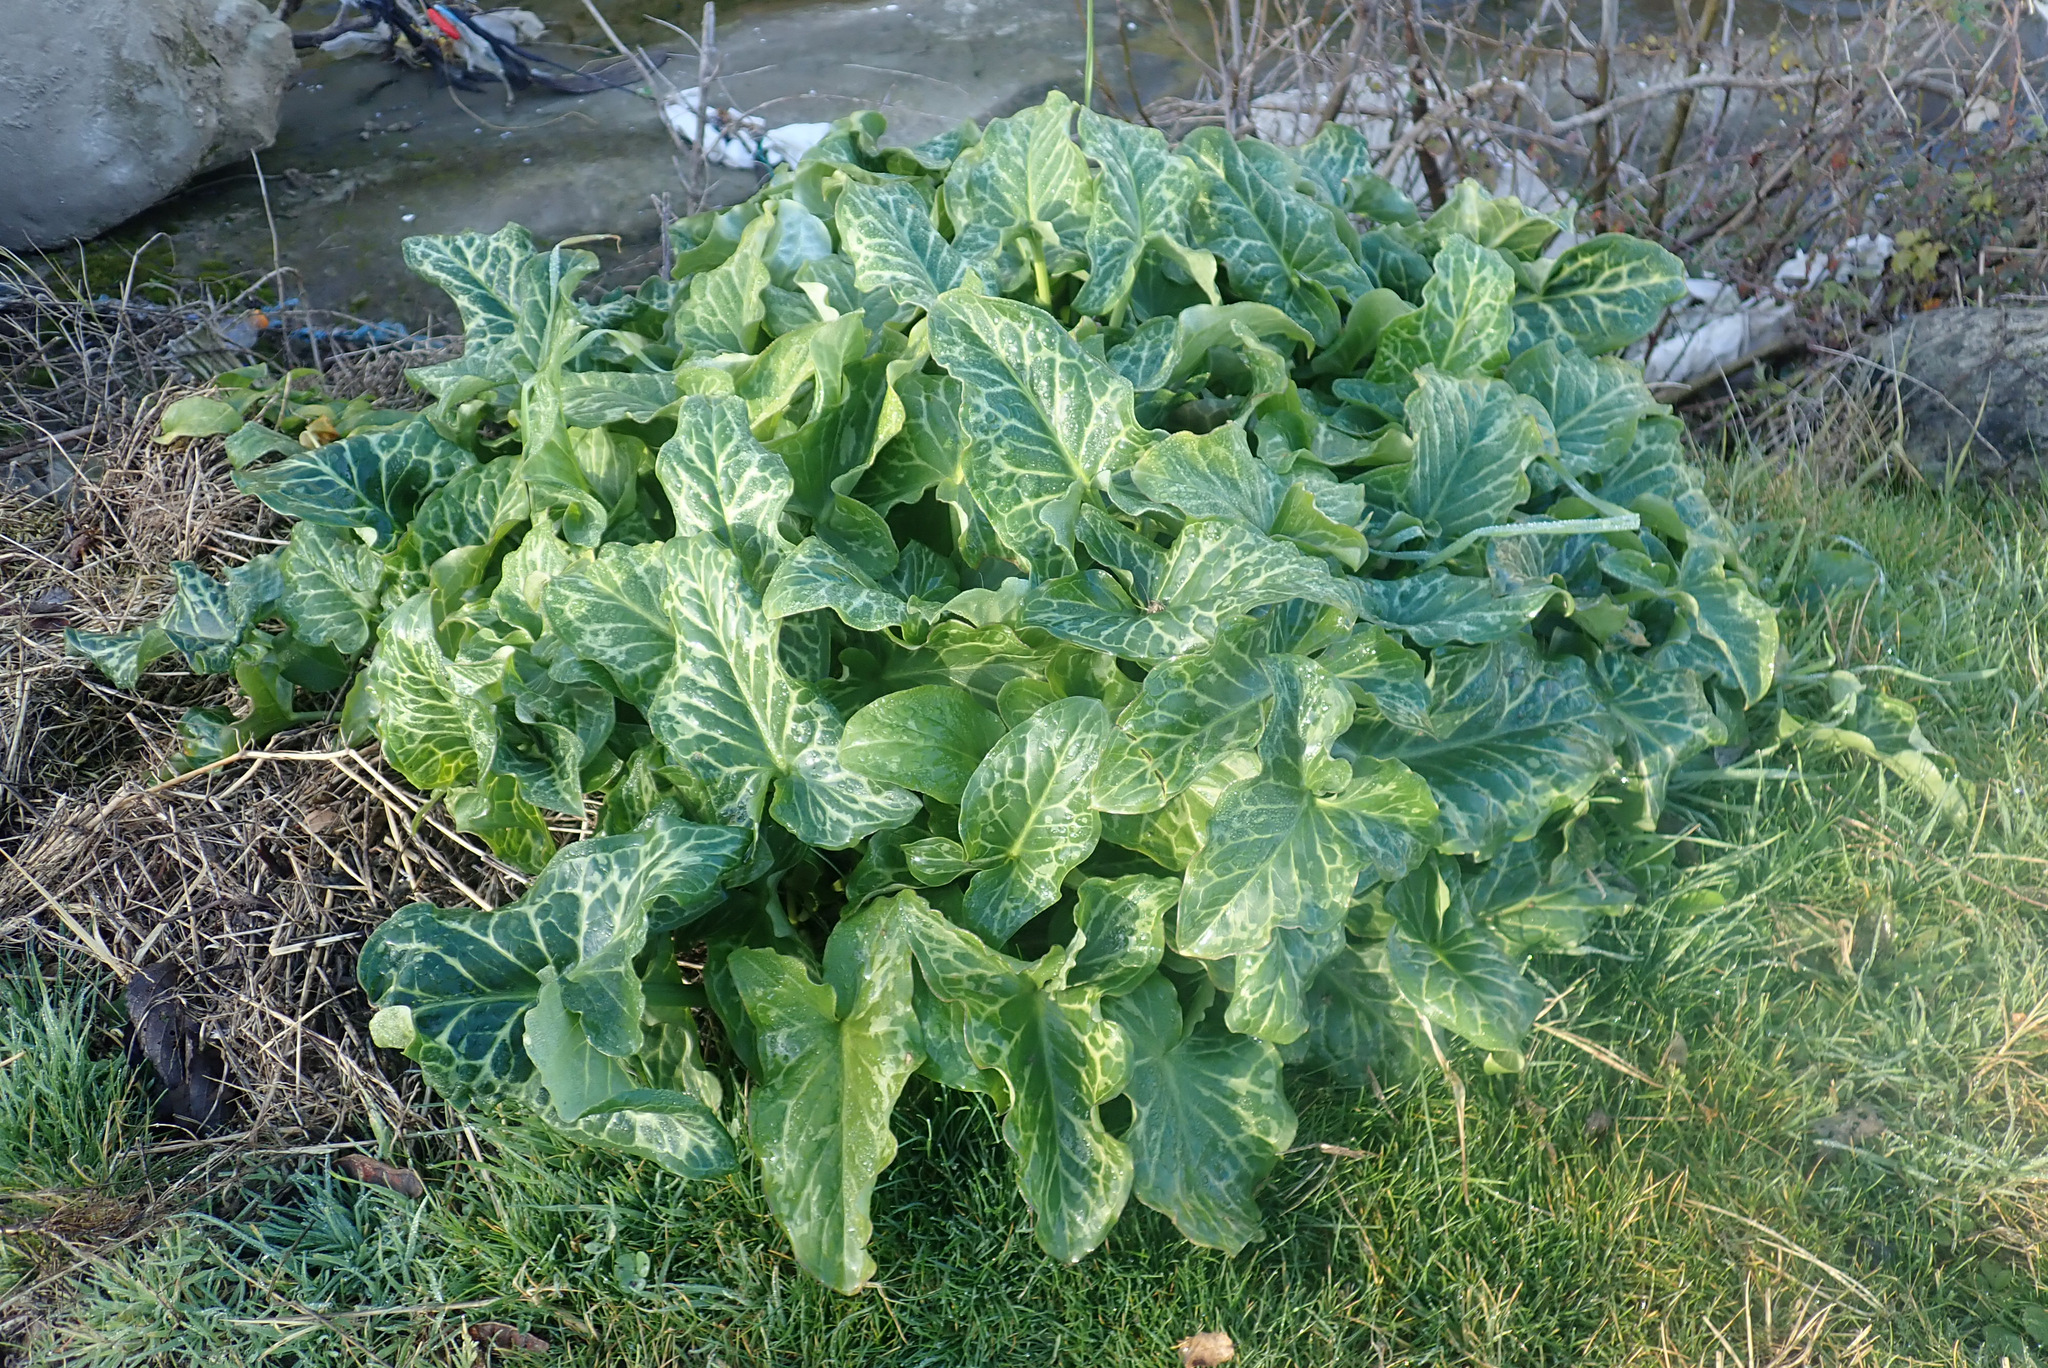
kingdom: Plantae
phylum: Tracheophyta
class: Liliopsida
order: Alismatales
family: Araceae
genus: Arum
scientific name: Arum italicum
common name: Italian lords-and-ladies
